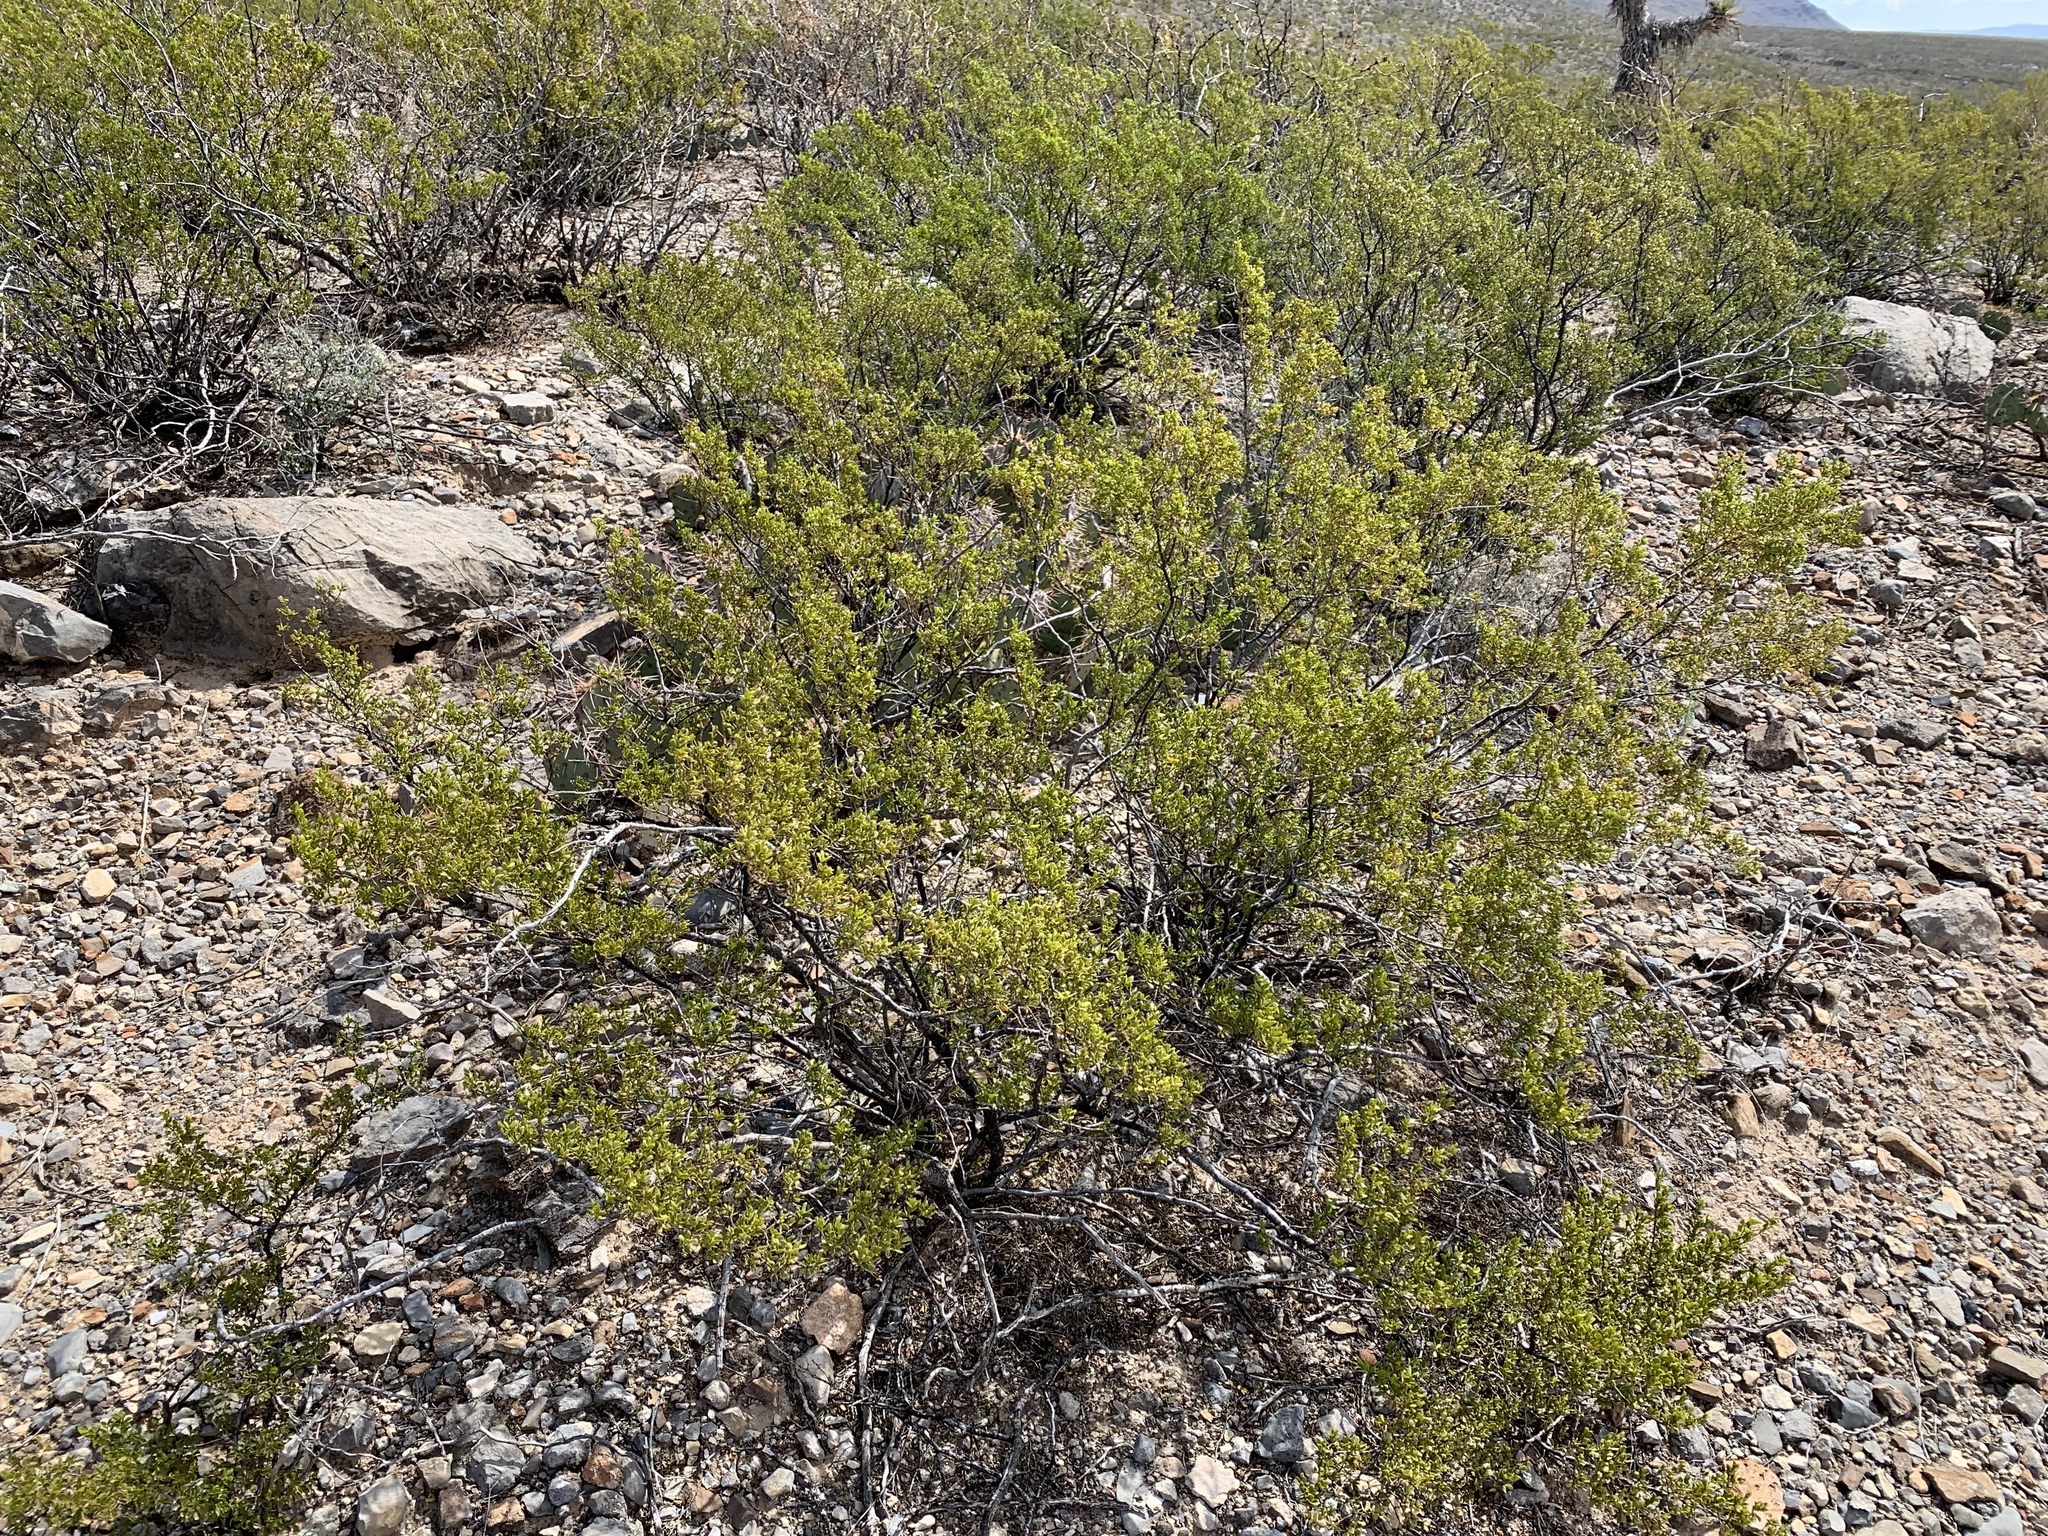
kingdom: Plantae
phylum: Tracheophyta
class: Magnoliopsida
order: Zygophyllales
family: Zygophyllaceae
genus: Larrea
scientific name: Larrea tridentata
